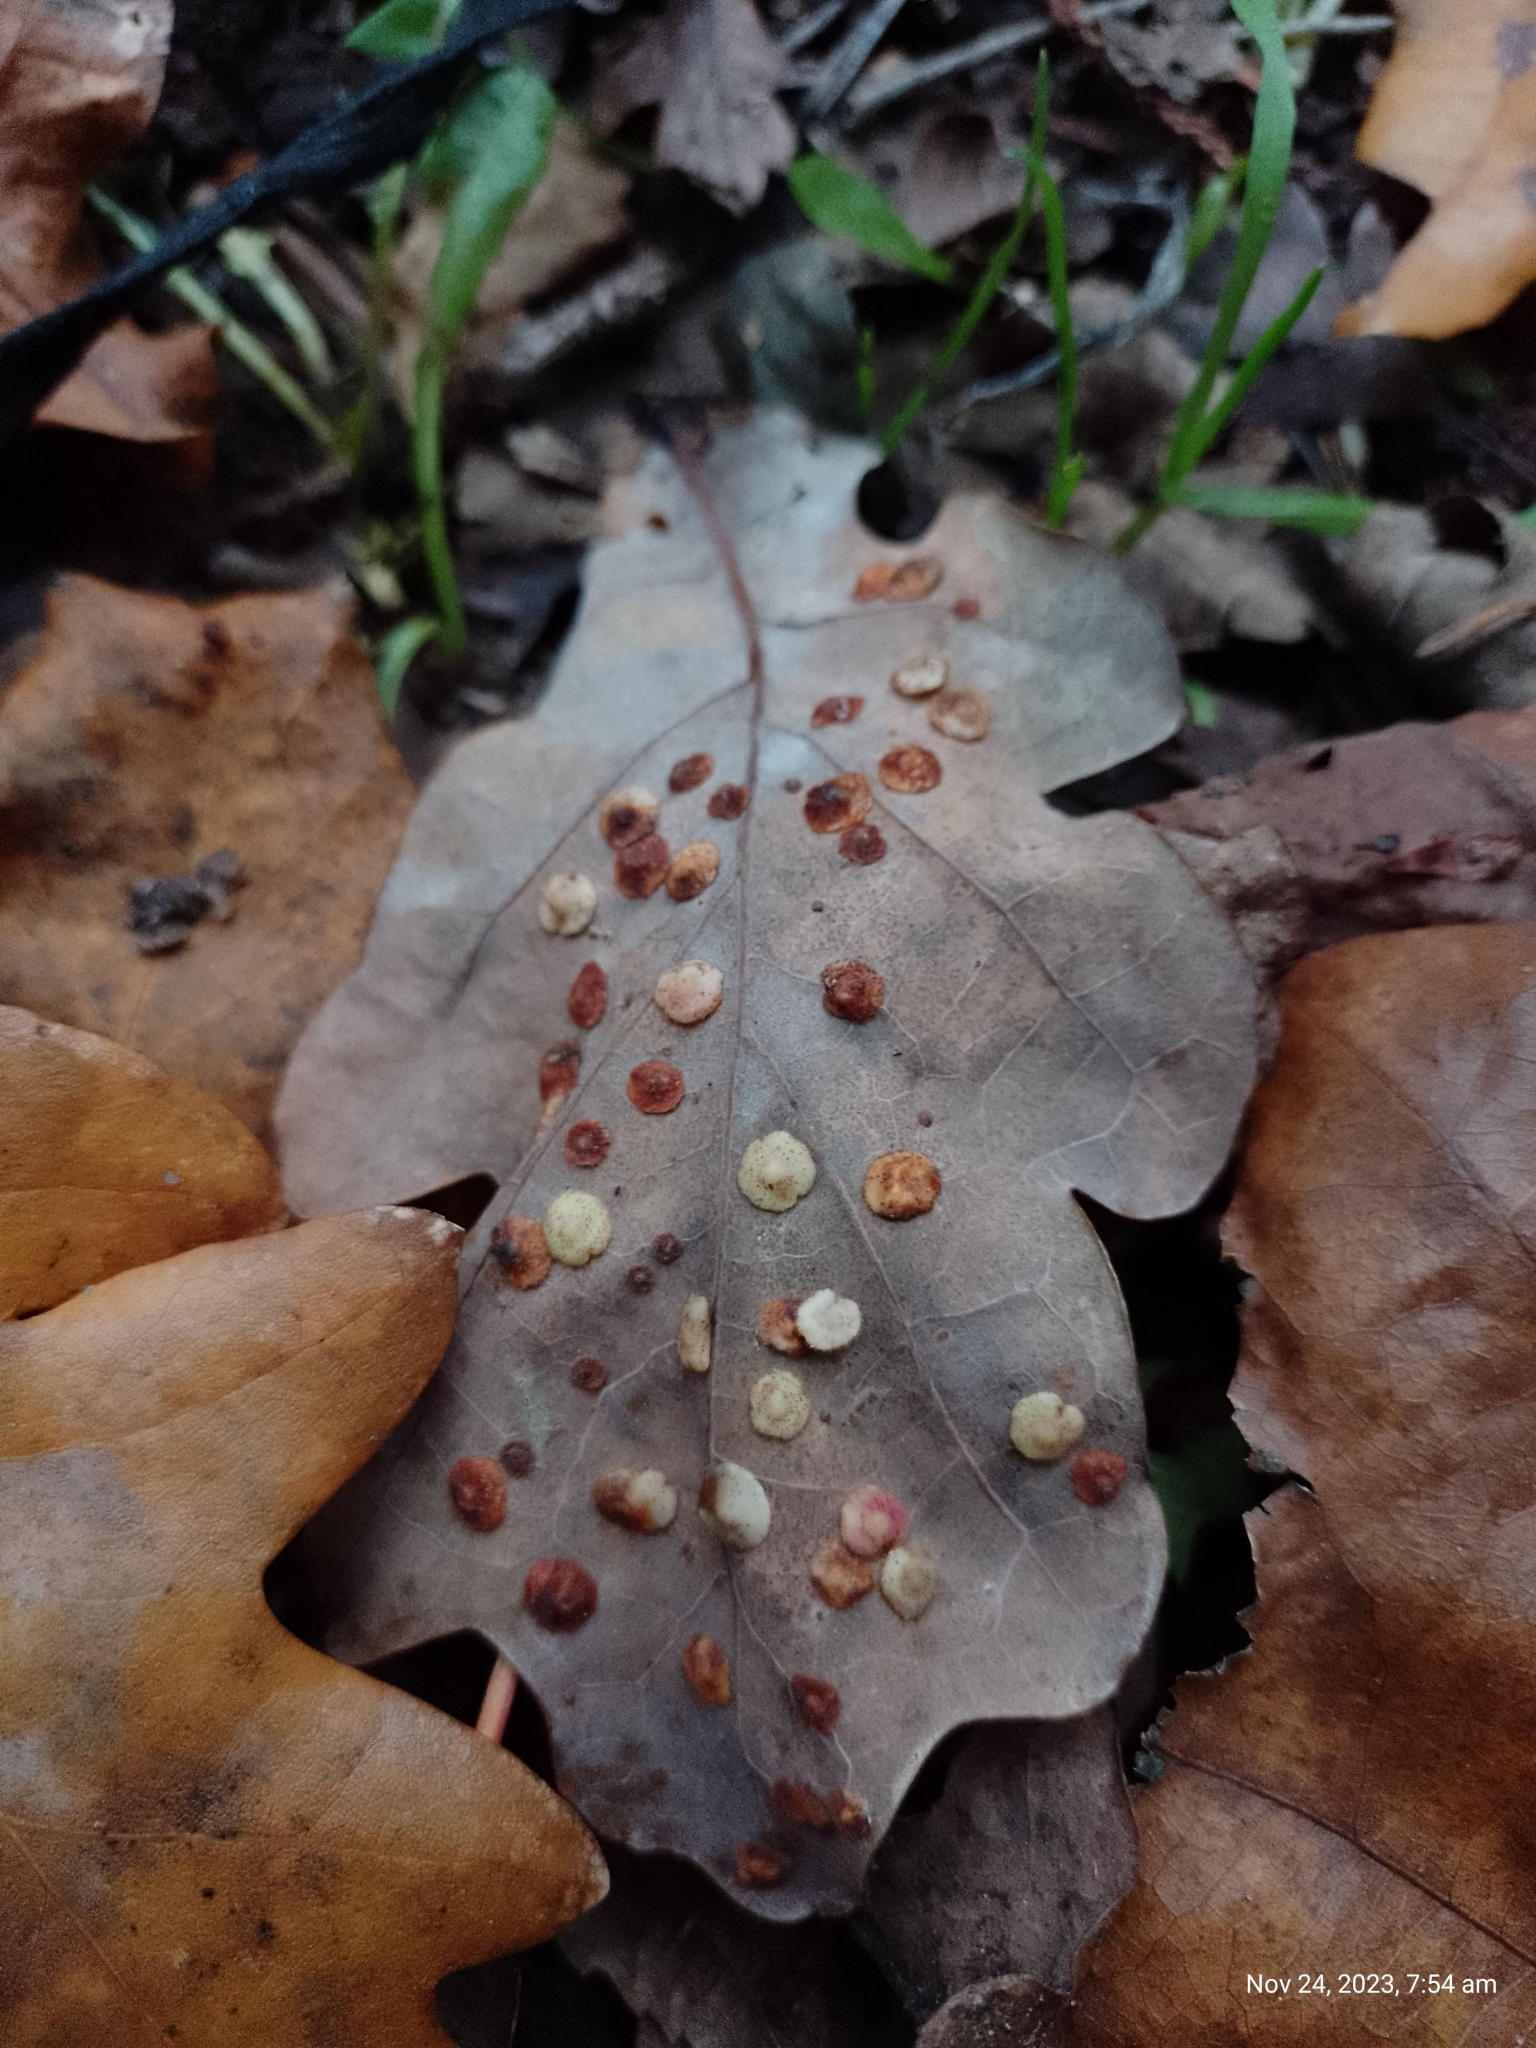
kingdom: Animalia
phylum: Arthropoda
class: Insecta
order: Hymenoptera
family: Cynipidae
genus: Neuroterus
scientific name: Neuroterus quercusbaccarum
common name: Common spangle gall
